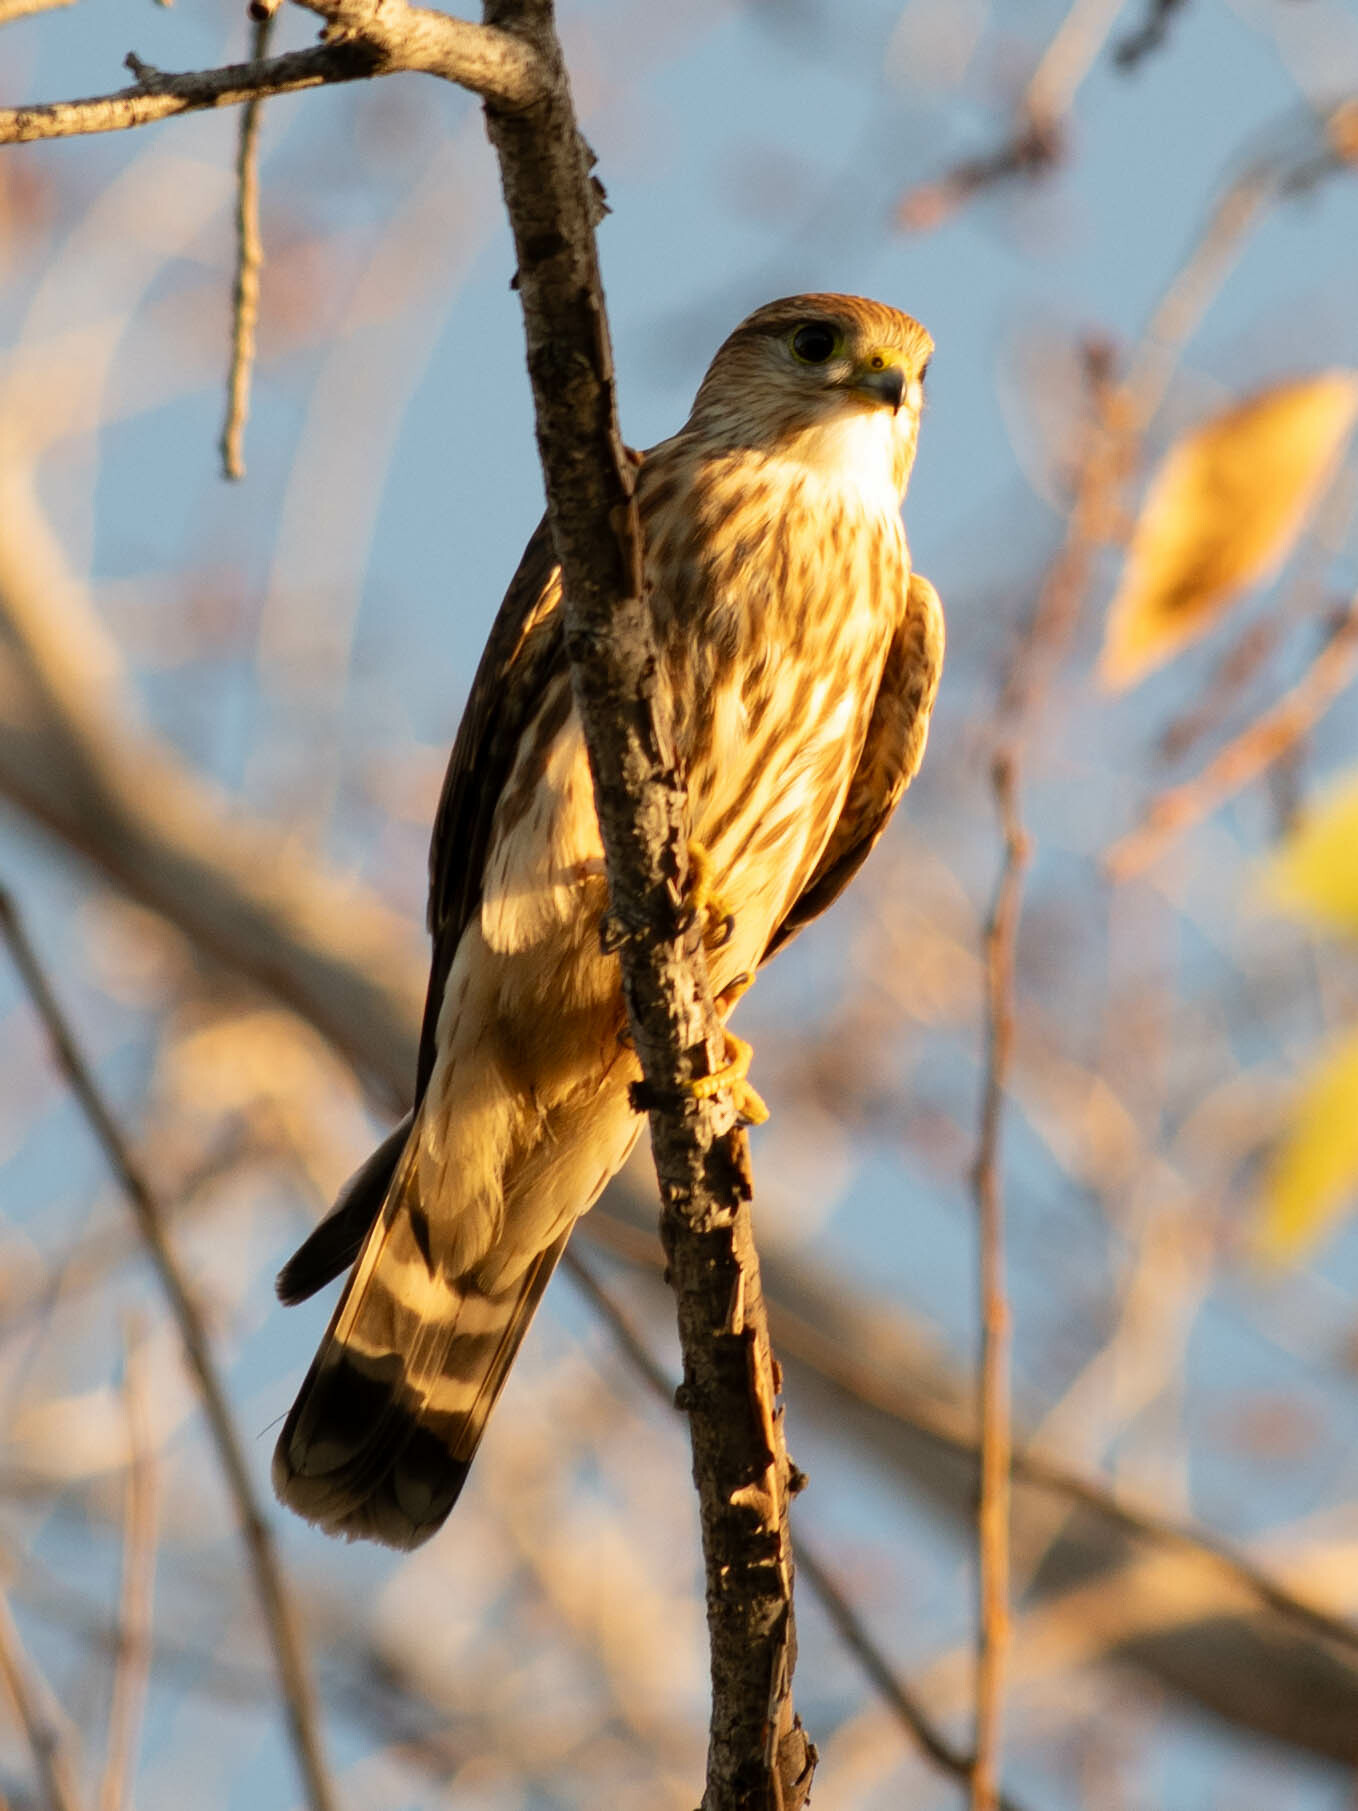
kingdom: Animalia
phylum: Chordata
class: Aves
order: Falconiformes
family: Falconidae
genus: Falco
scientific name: Falco columbarius
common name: Merlin
